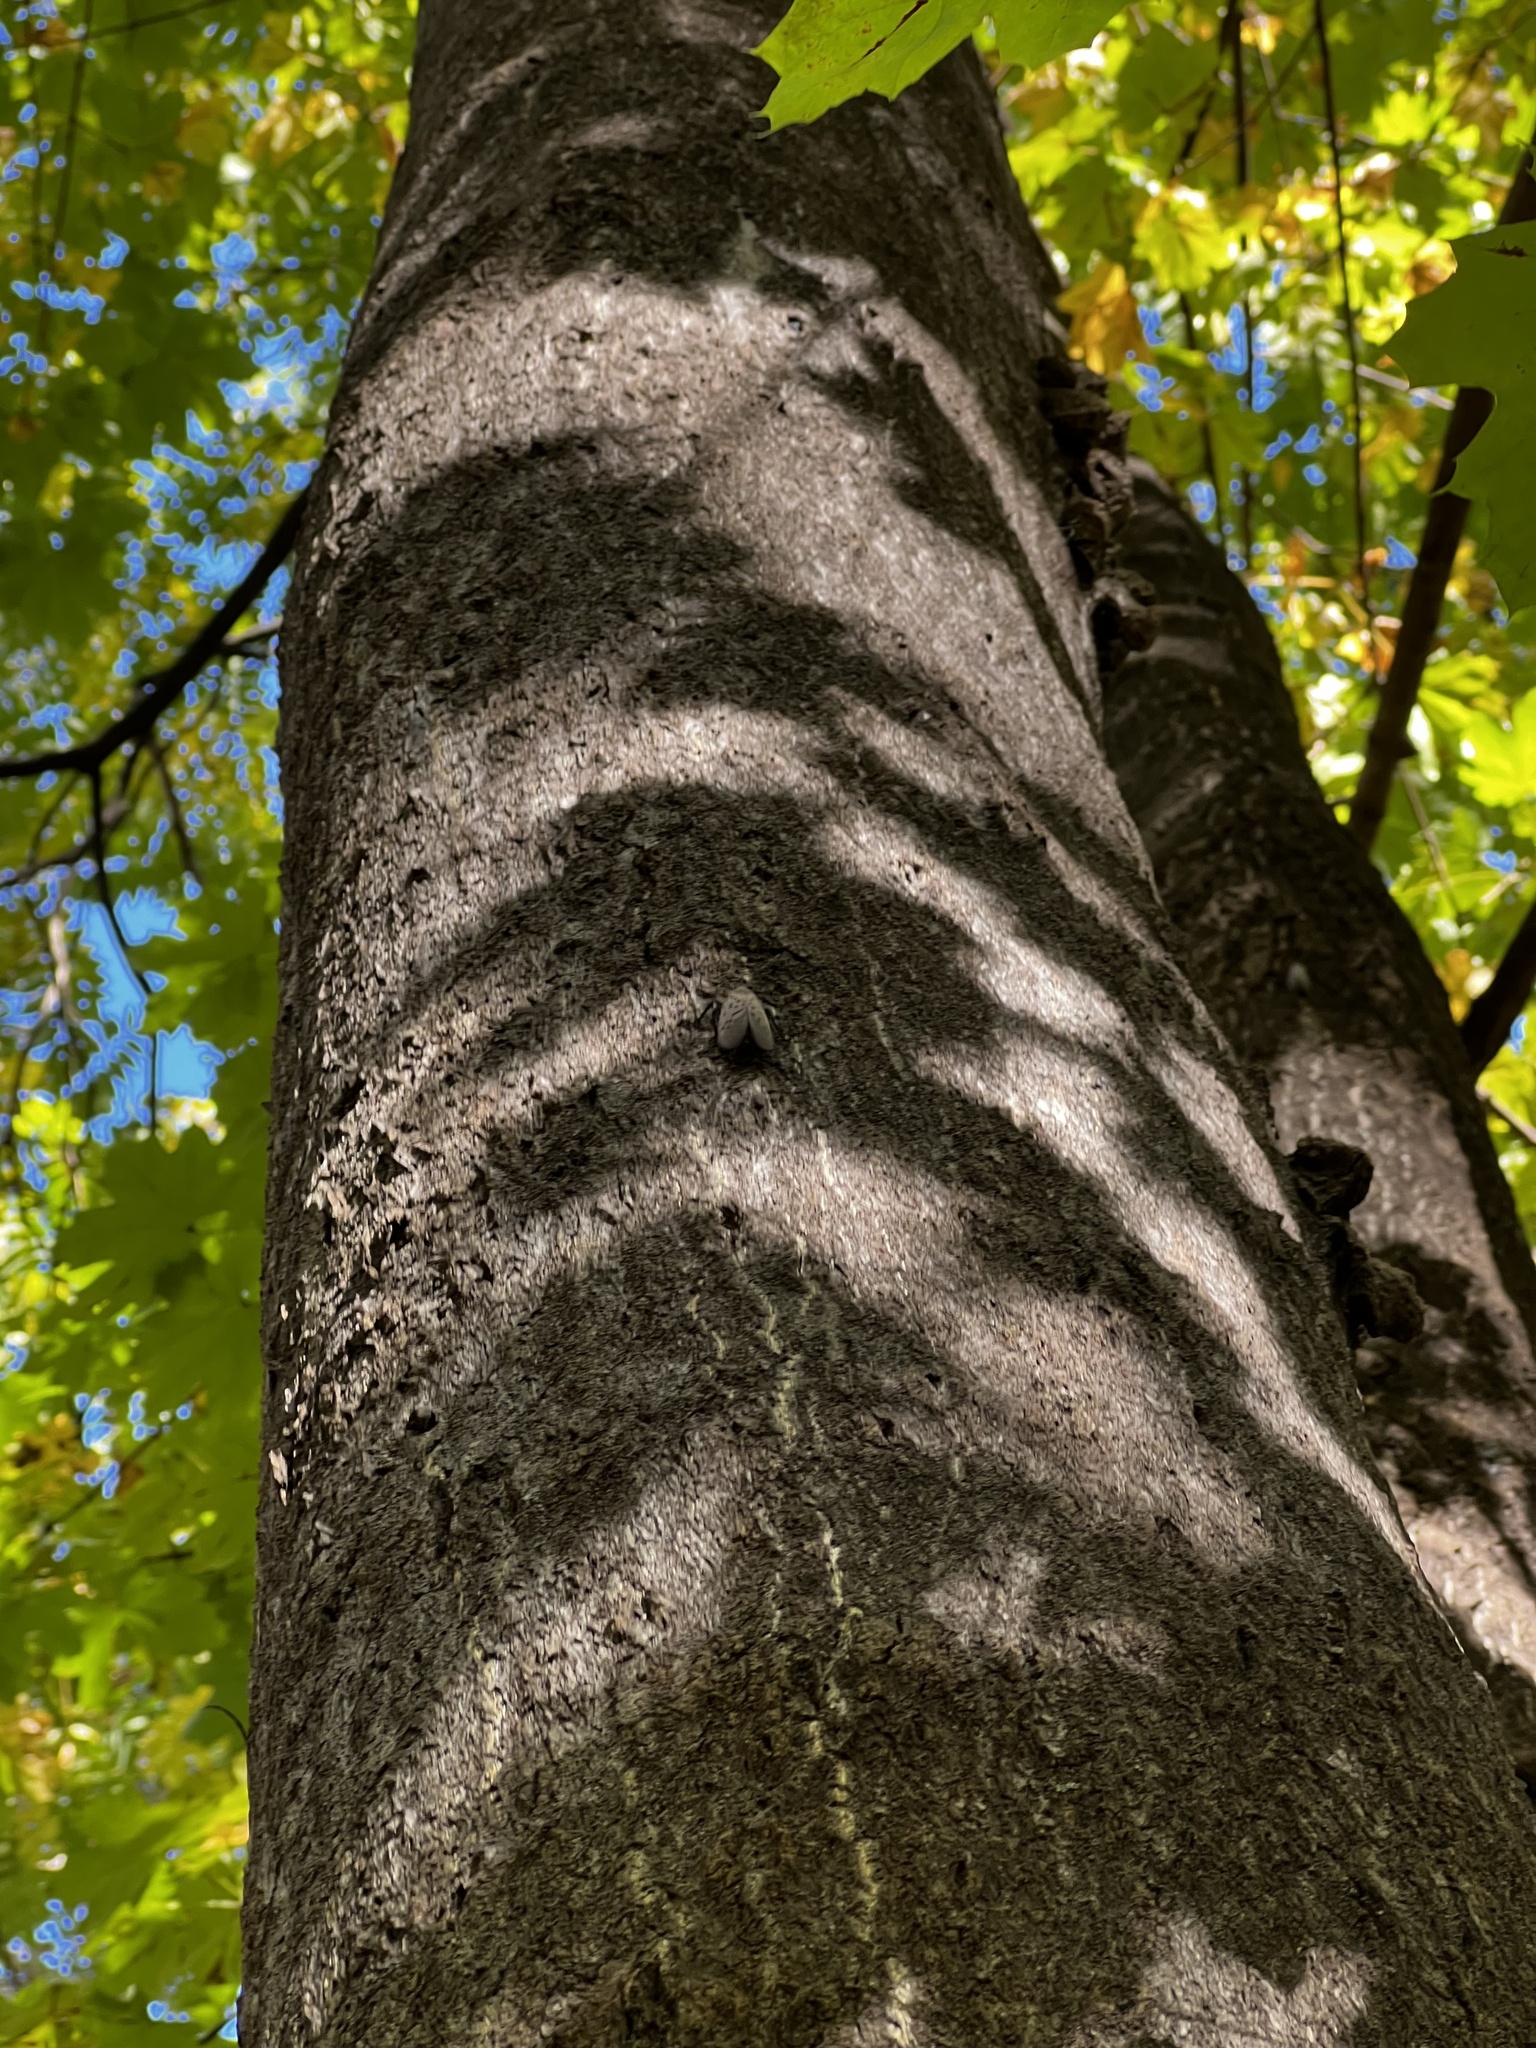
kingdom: Animalia
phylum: Arthropoda
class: Insecta
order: Hemiptera
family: Fulgoridae
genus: Lycorma
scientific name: Lycorma delicatula
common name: Spotted lanternfly
